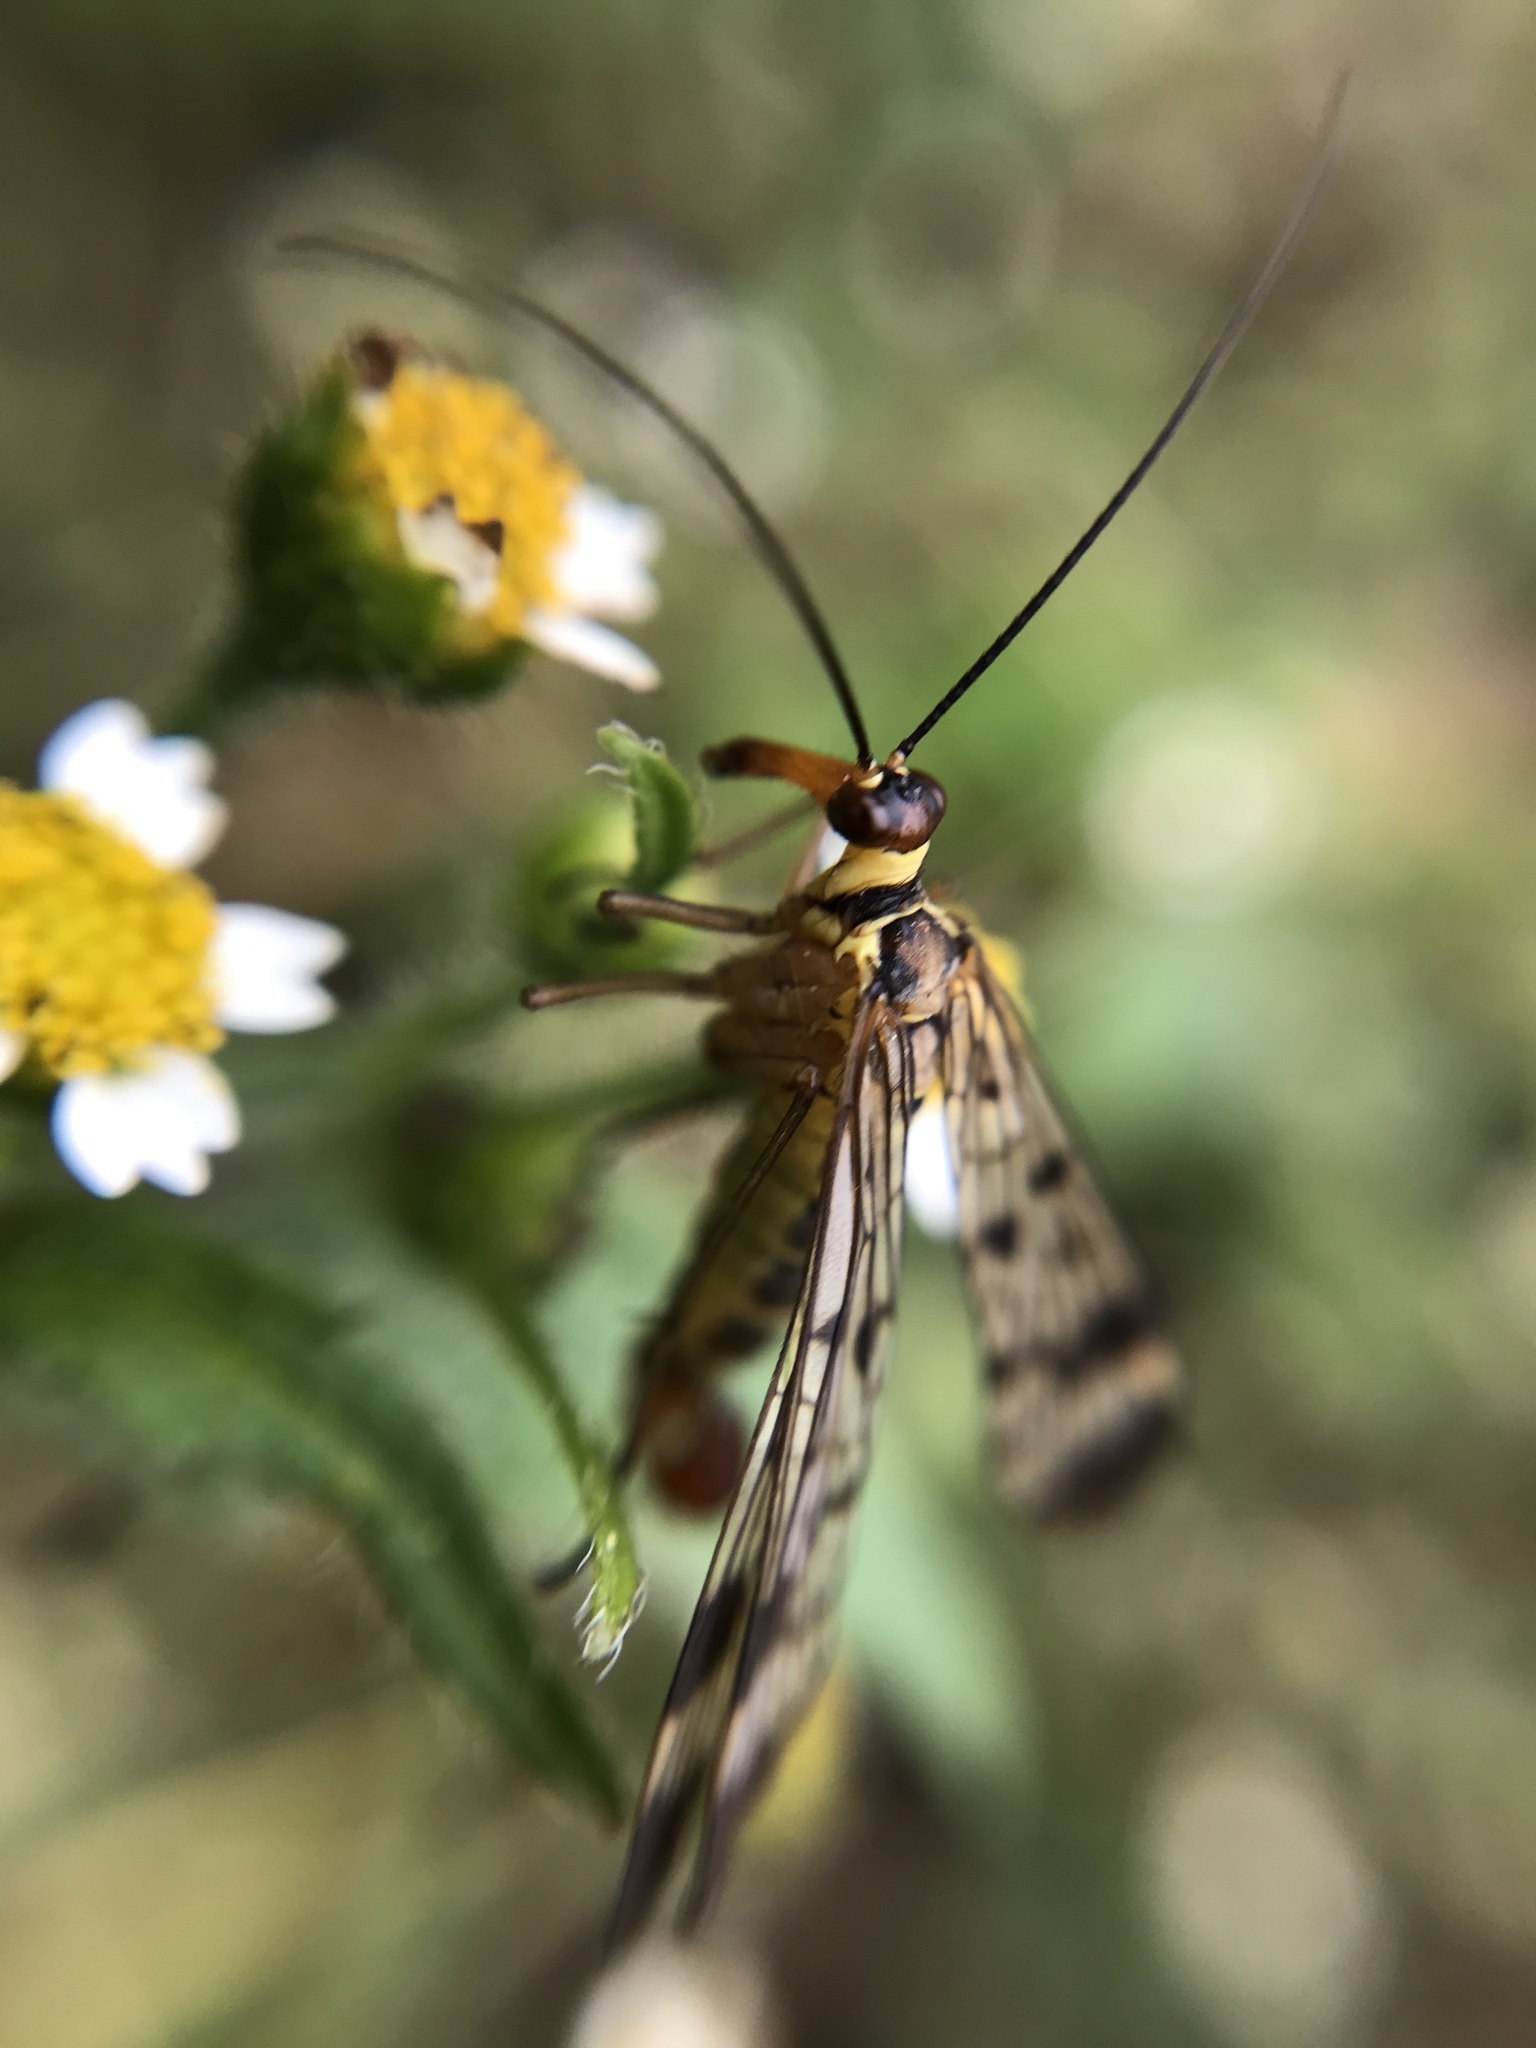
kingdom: Animalia
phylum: Arthropoda
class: Insecta
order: Mecoptera
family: Panorpidae
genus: Panorpa
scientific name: Panorpa communis
